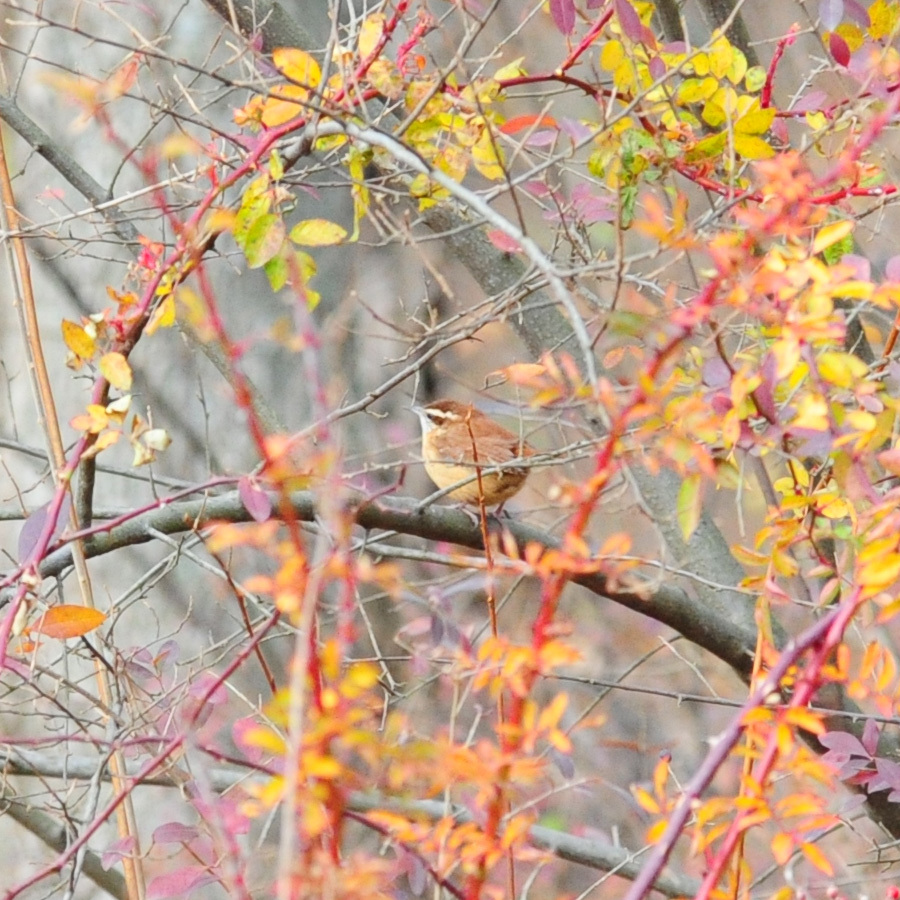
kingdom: Animalia
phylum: Chordata
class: Aves
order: Passeriformes
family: Troglodytidae
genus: Thryothorus
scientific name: Thryothorus ludovicianus
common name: Carolina wren
